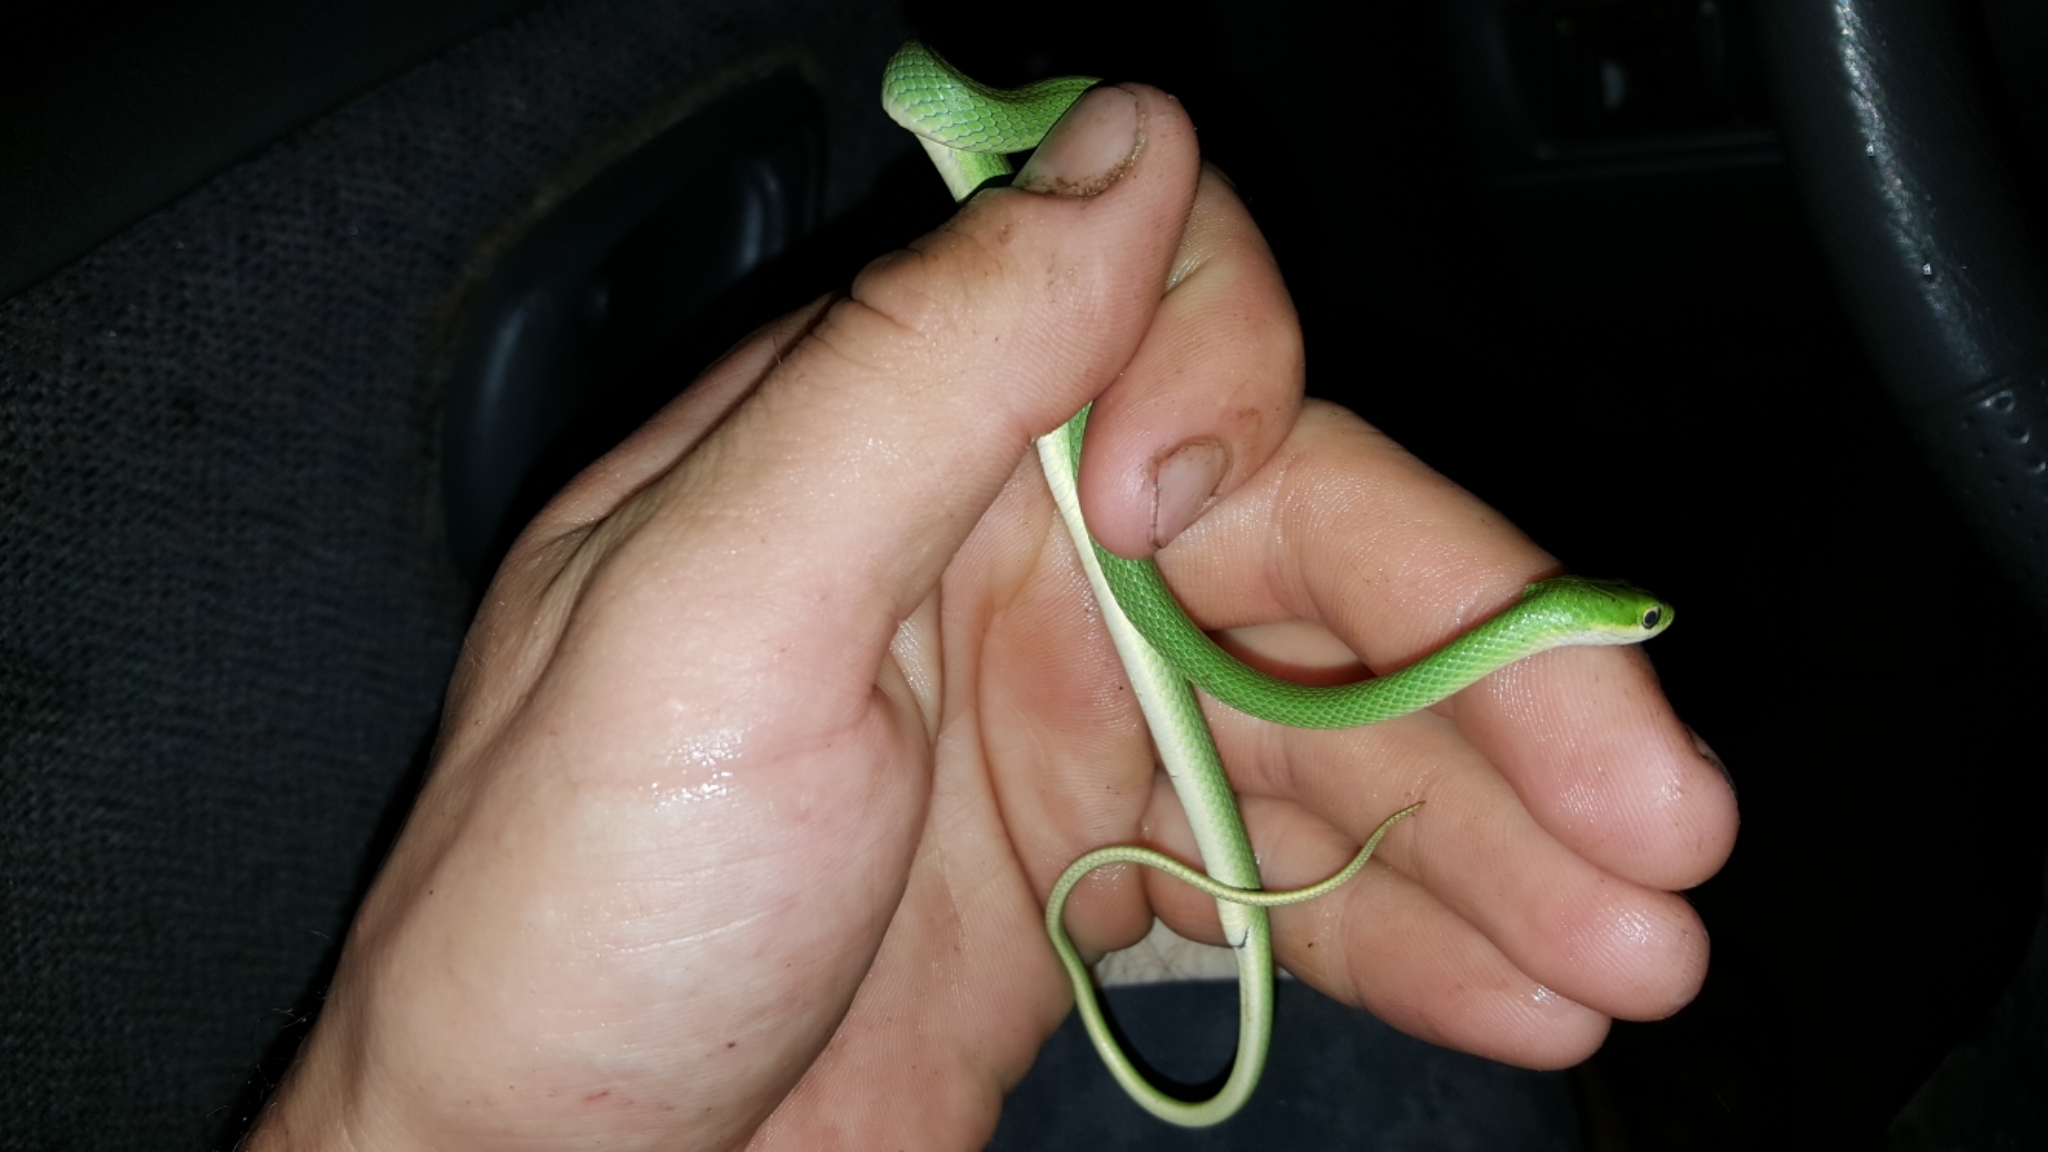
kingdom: Animalia
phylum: Chordata
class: Squamata
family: Colubridae
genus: Opheodrys
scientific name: Opheodrys aestivus
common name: Rough greensnake
